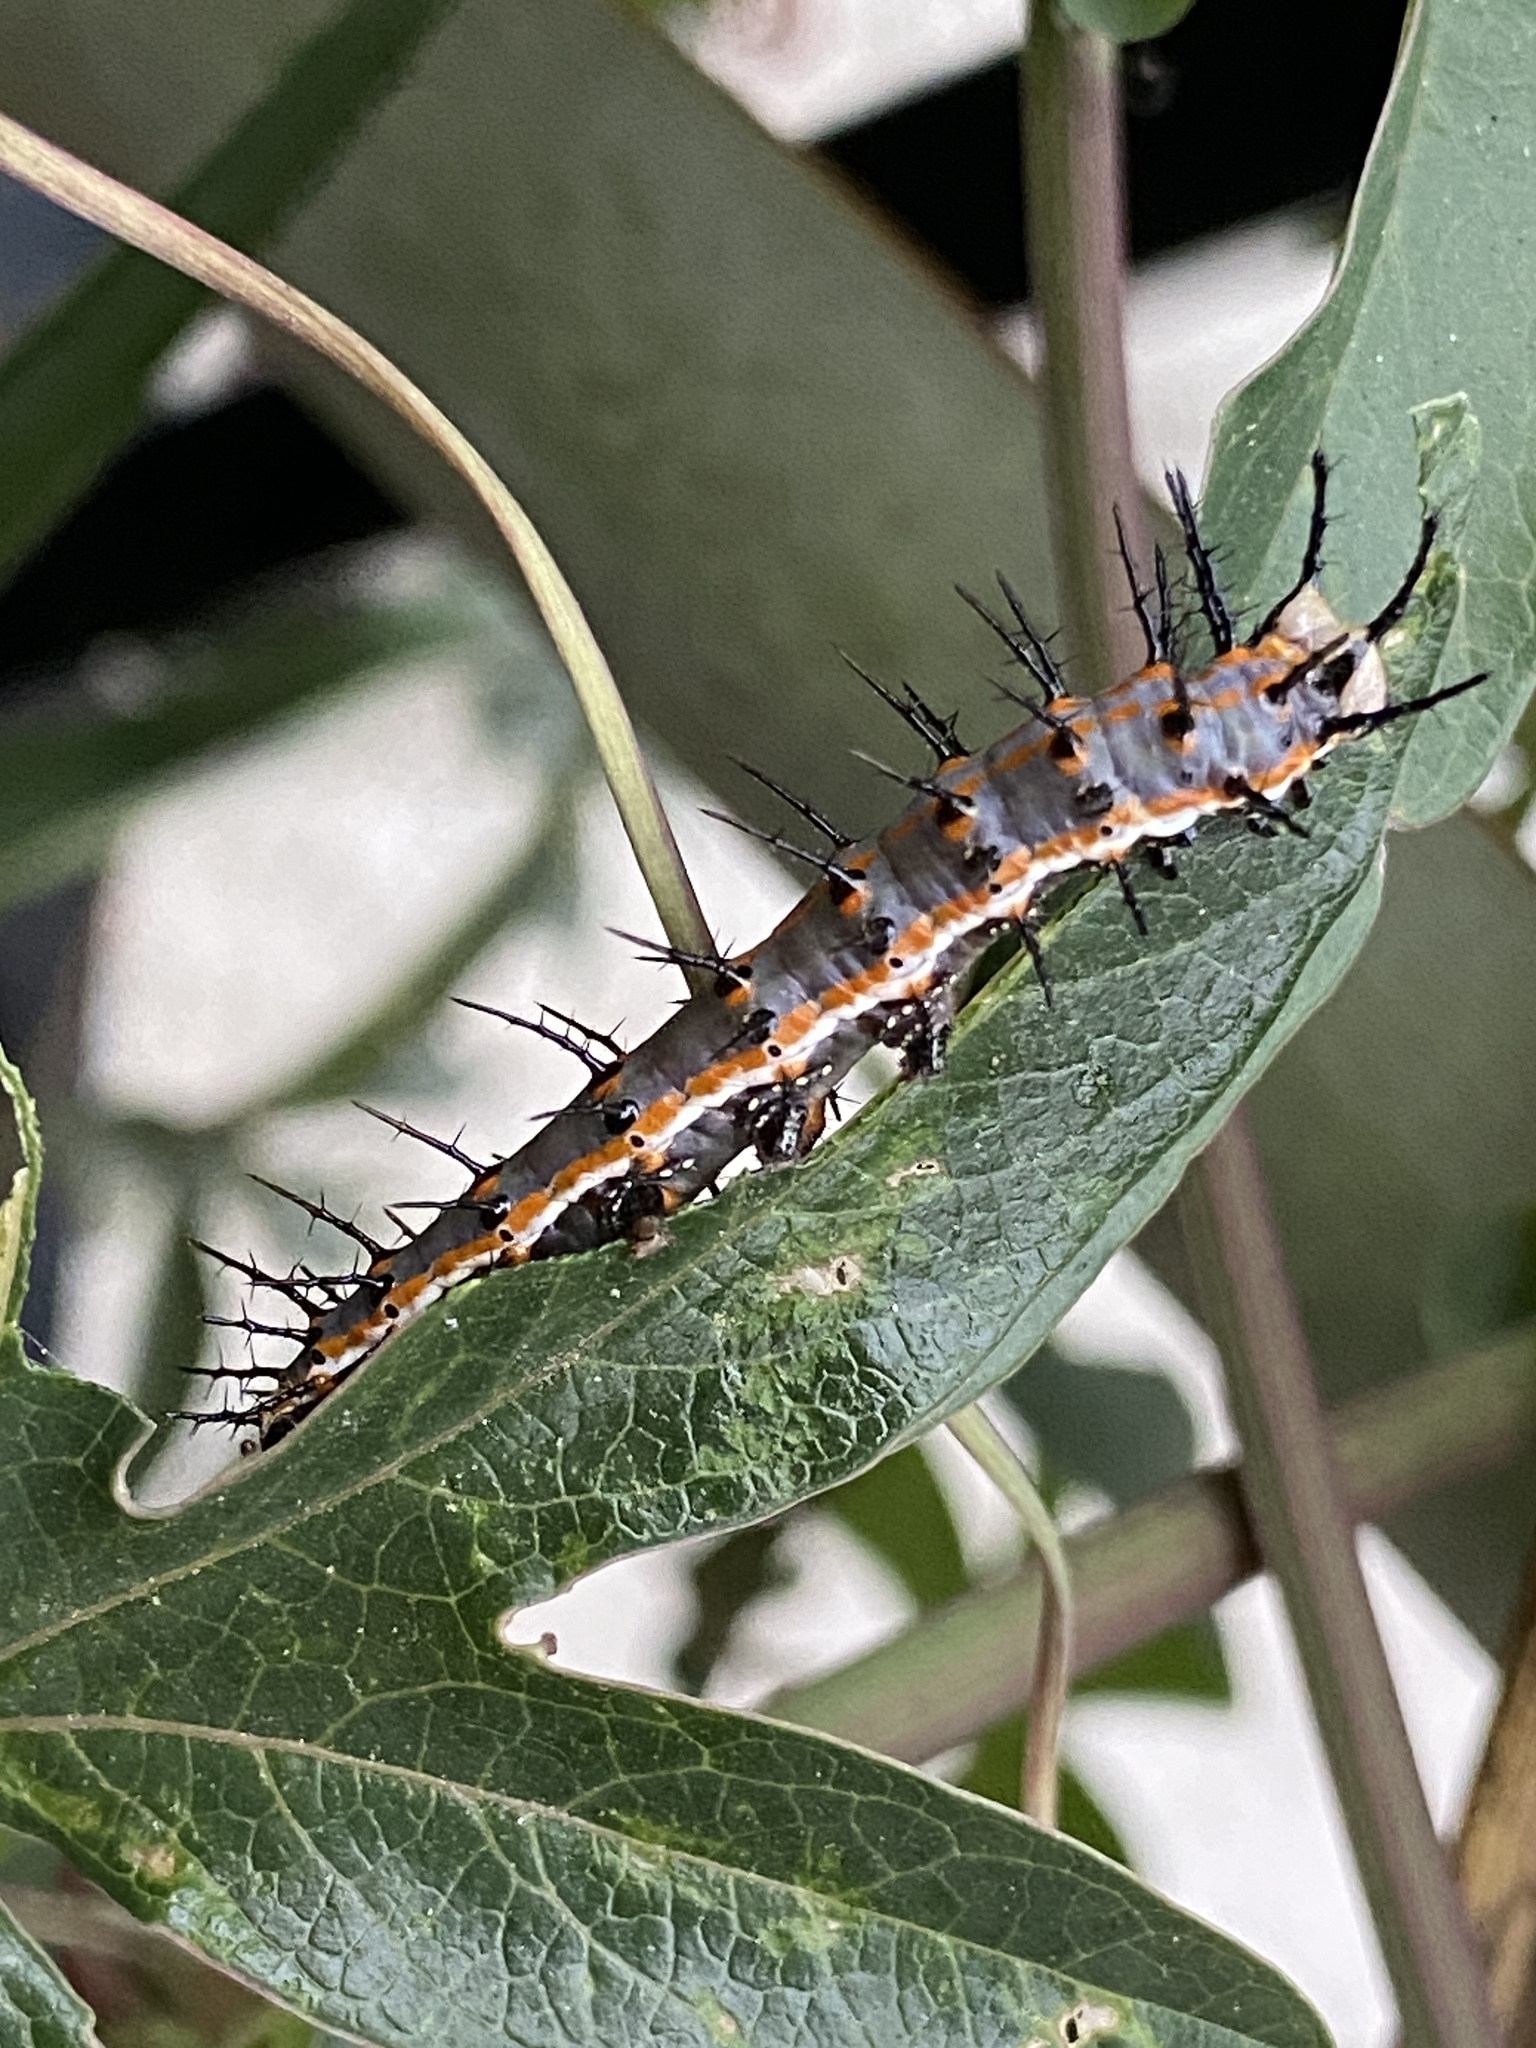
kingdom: Animalia
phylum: Arthropoda
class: Insecta
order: Lepidoptera
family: Nymphalidae
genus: Dione
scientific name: Dione vanillae
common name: Gulf fritillary
